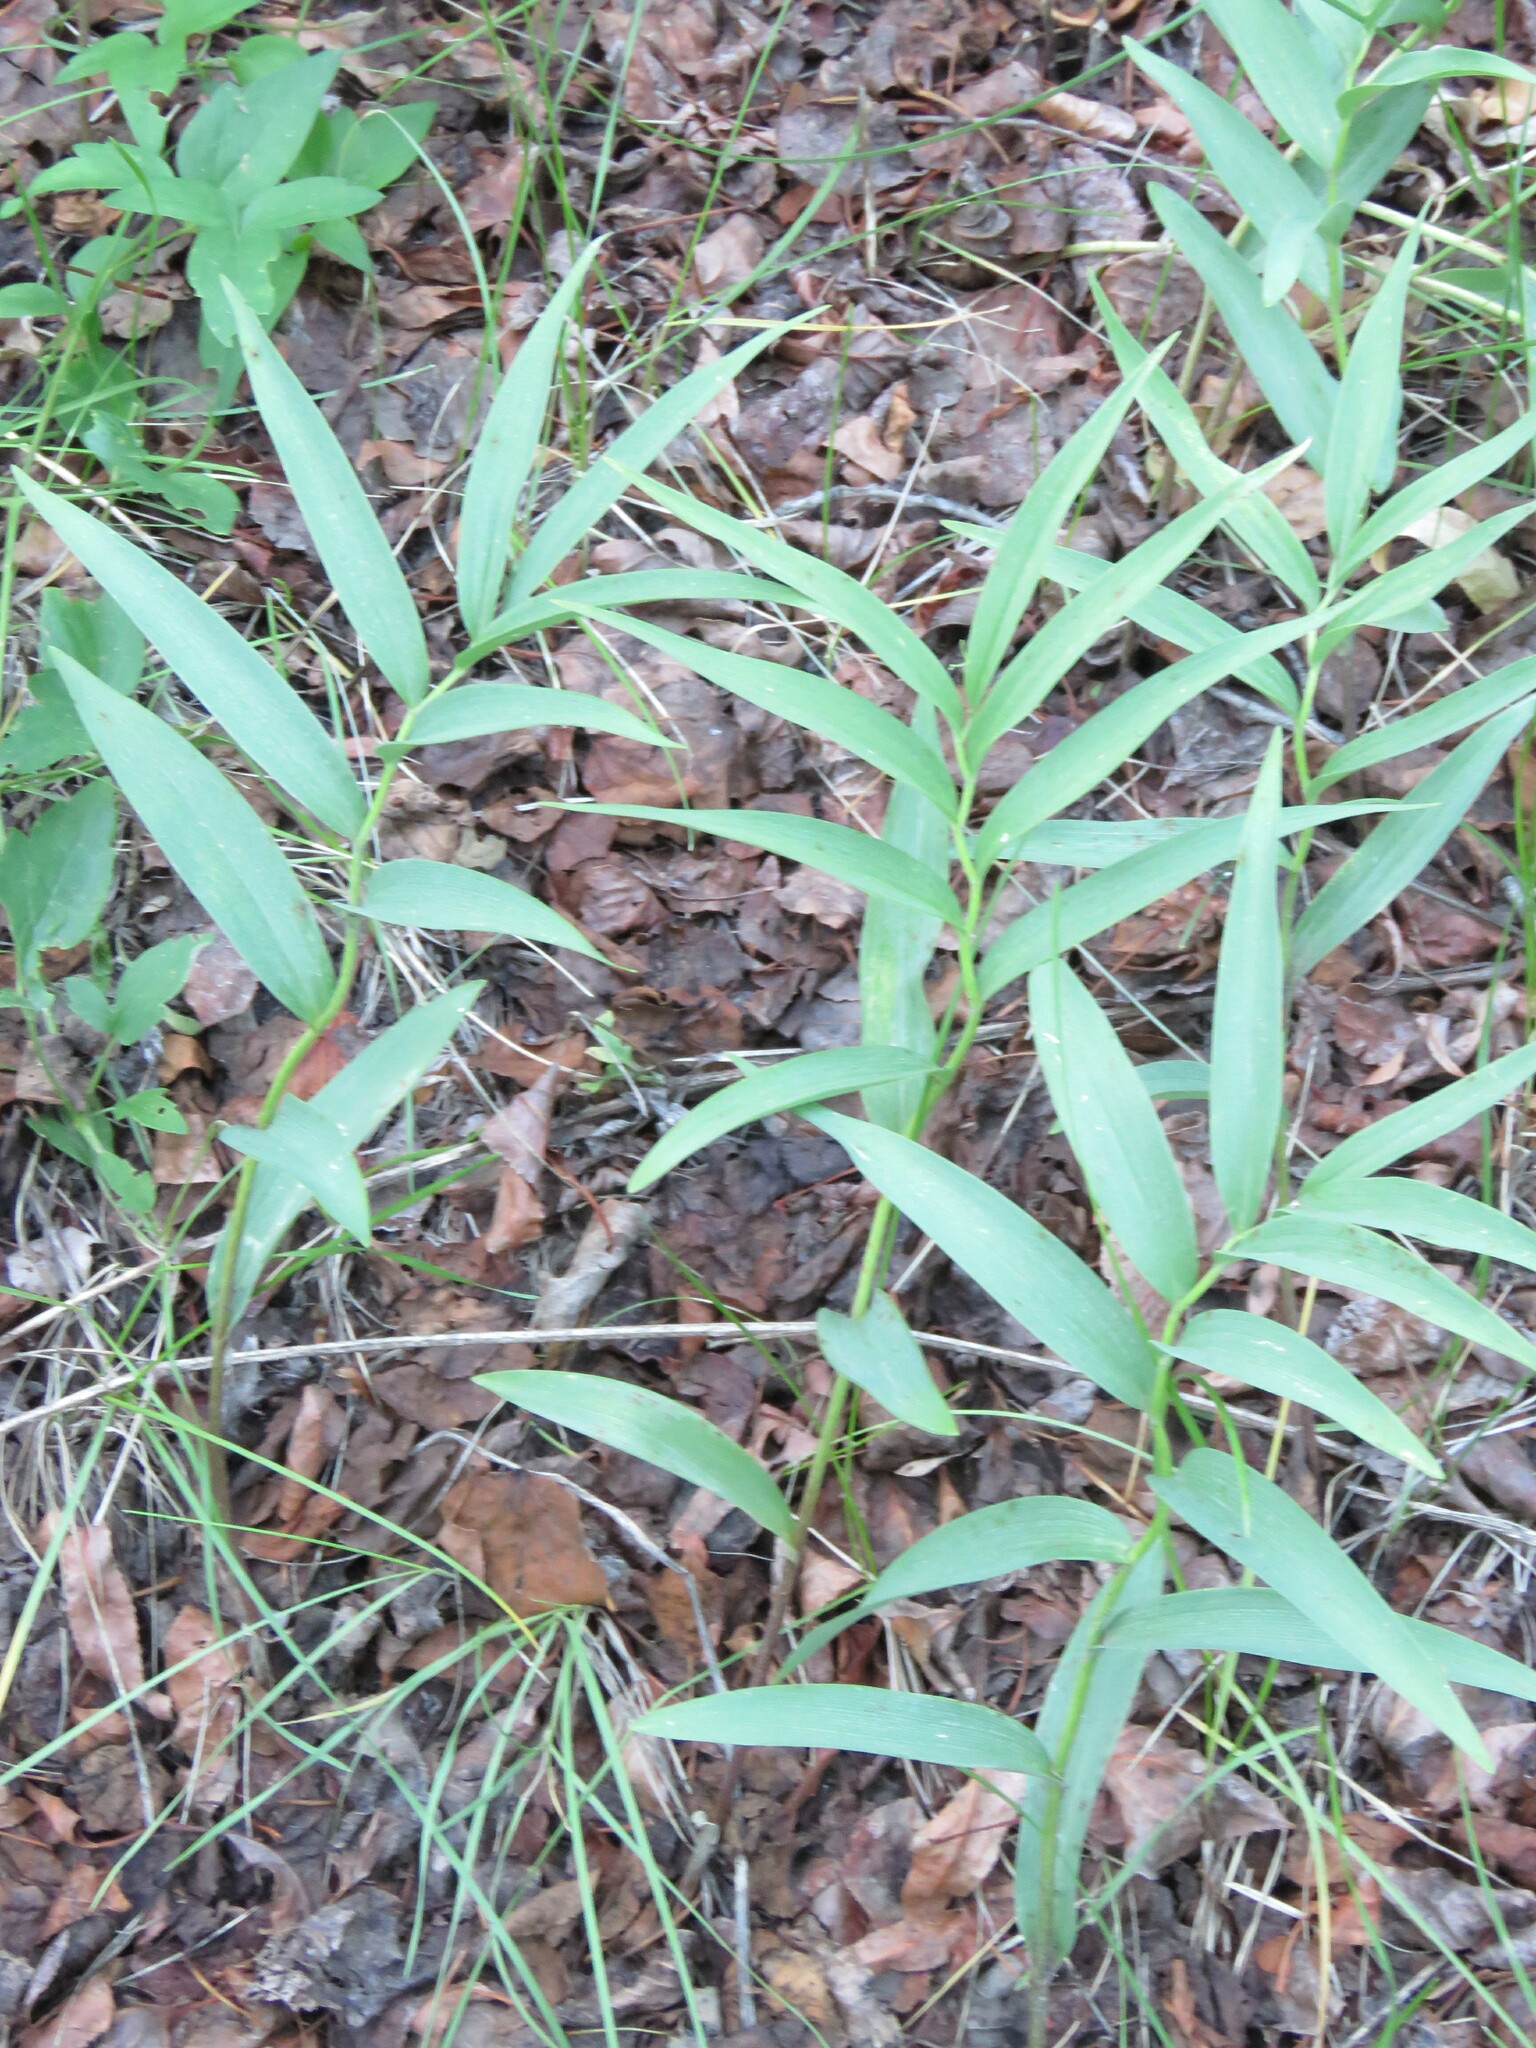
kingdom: Plantae
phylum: Tracheophyta
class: Liliopsida
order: Asparagales
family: Asparagaceae
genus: Maianthemum
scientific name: Maianthemum stellatum
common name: Little false solomon's seal
